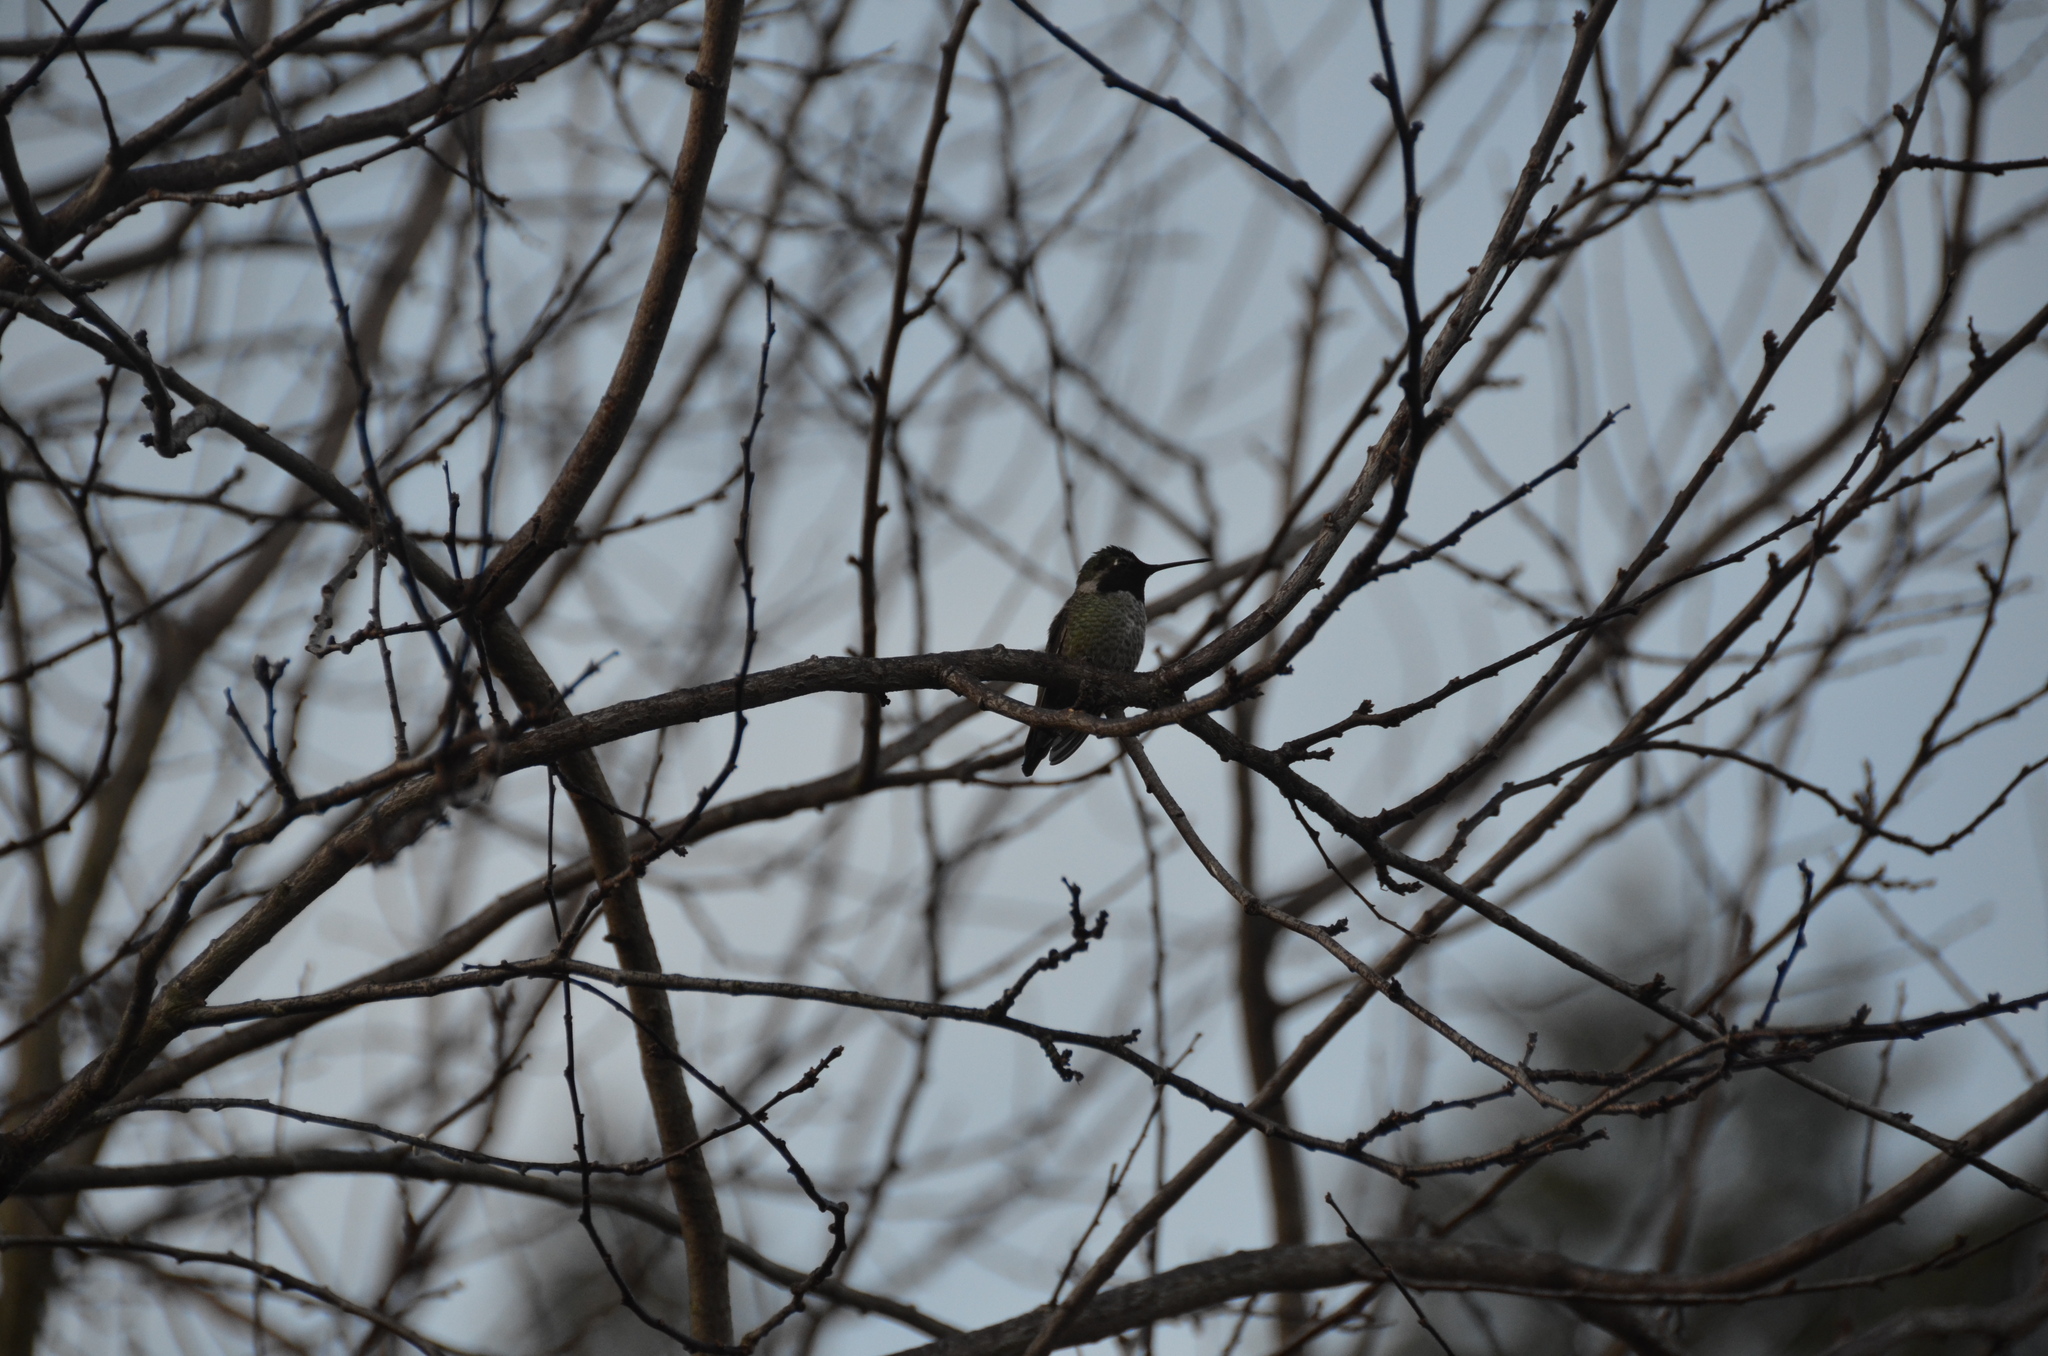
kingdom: Animalia
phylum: Chordata
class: Aves
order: Apodiformes
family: Trochilidae
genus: Calypte
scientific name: Calypte anna
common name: Anna's hummingbird
